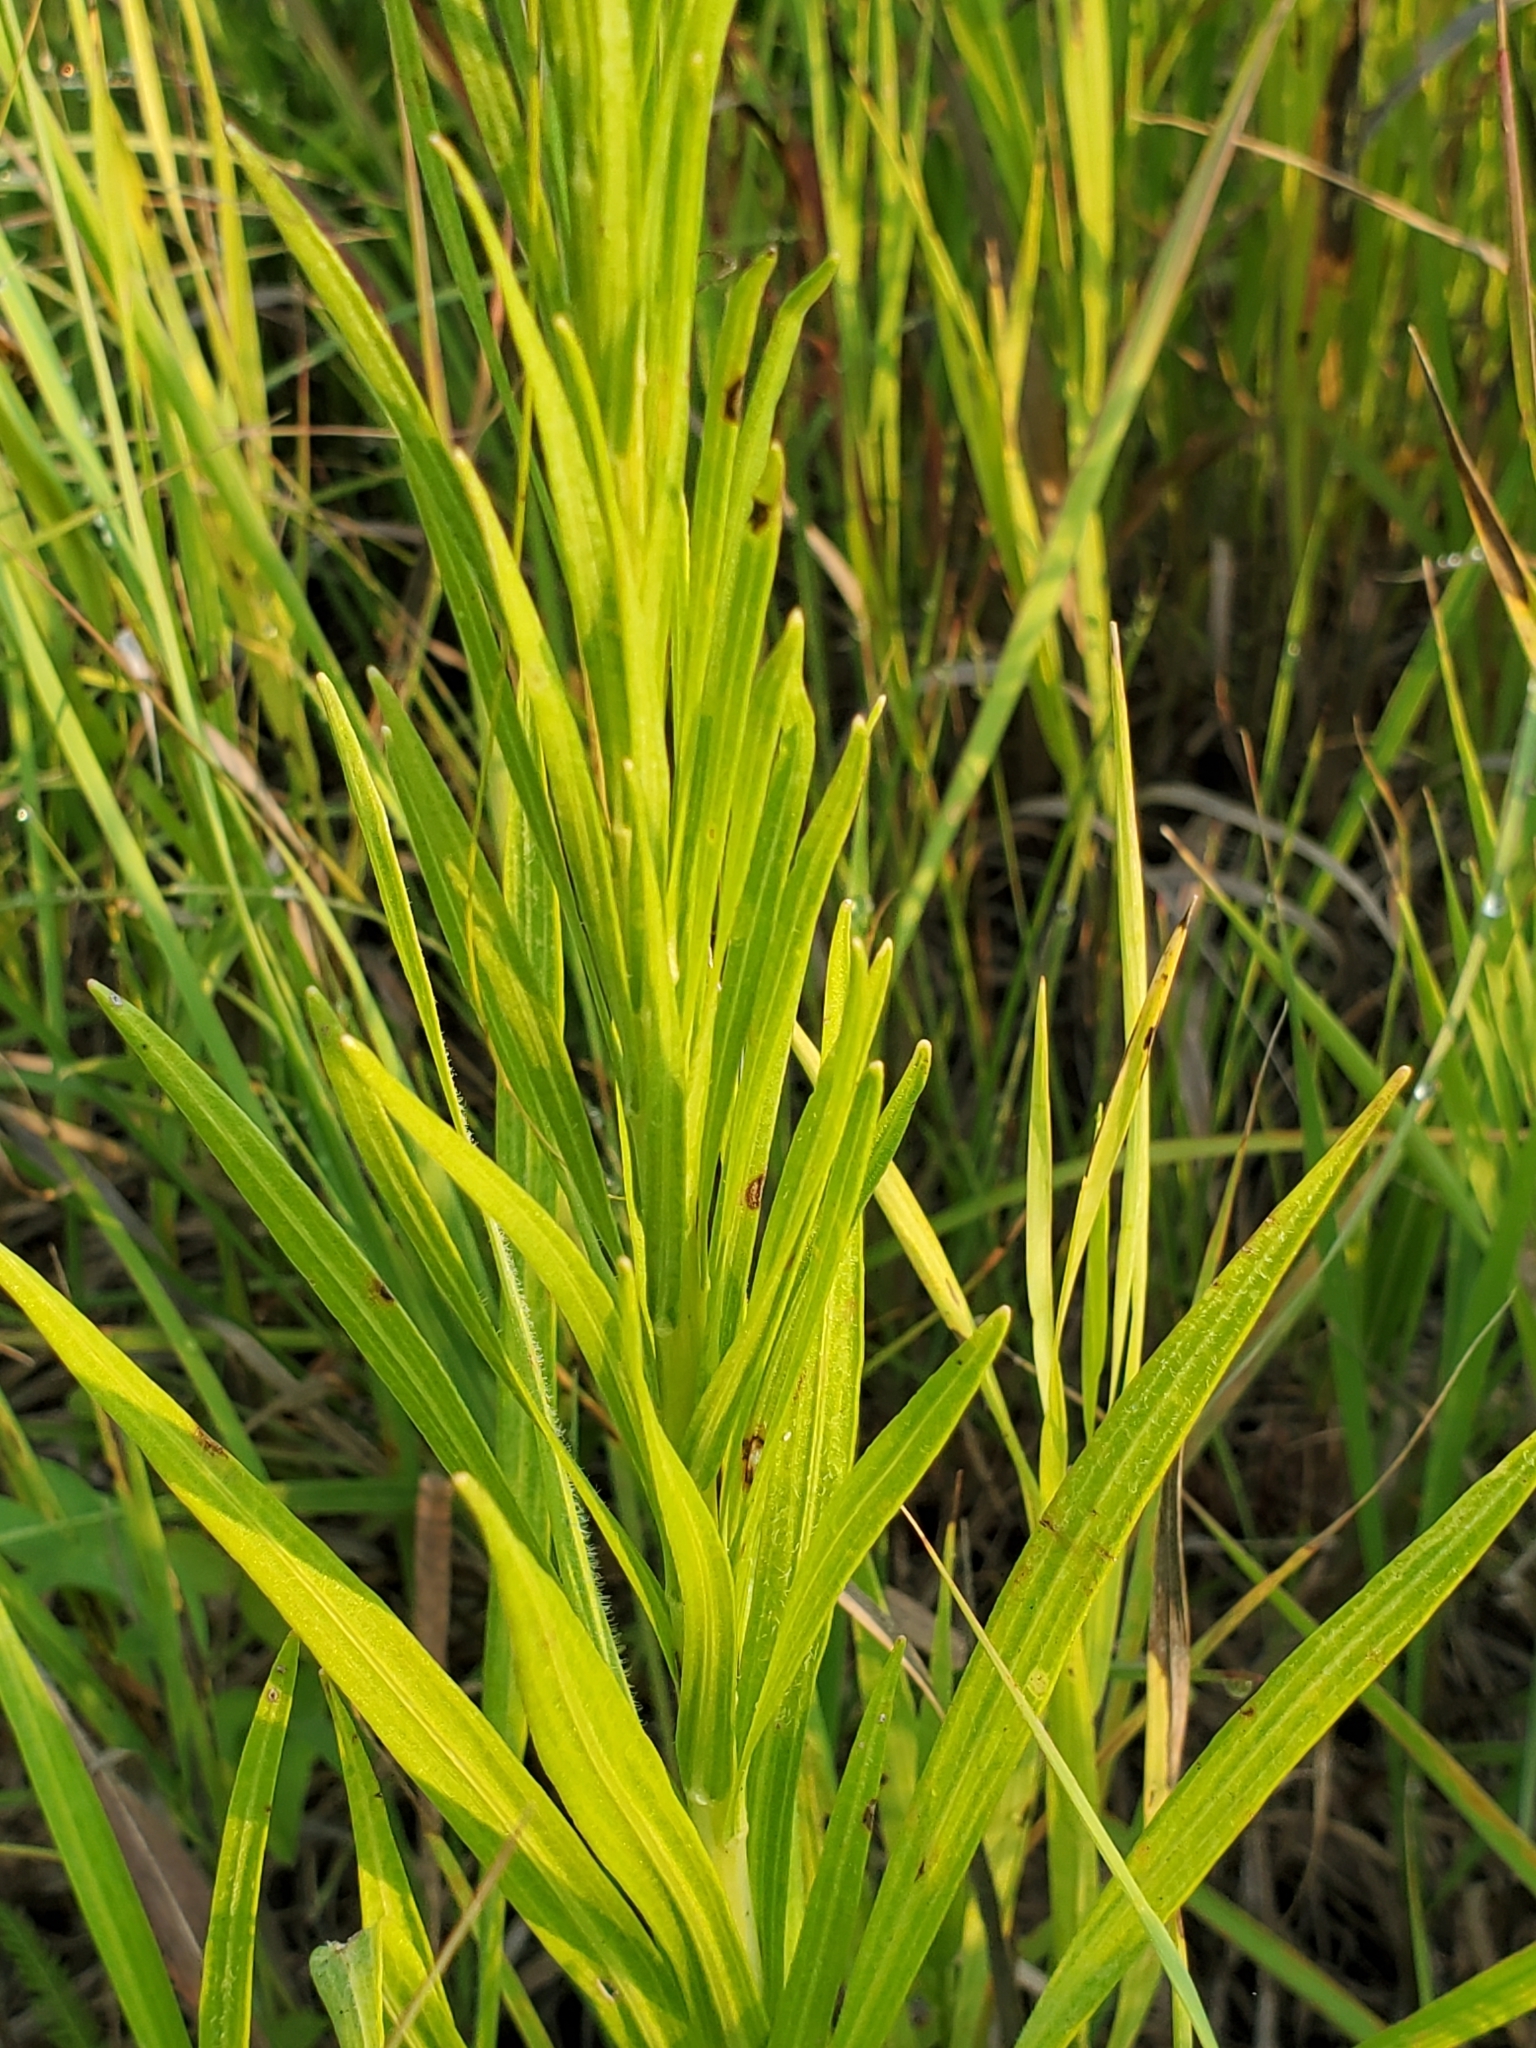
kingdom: Plantae
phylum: Tracheophyta
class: Magnoliopsida
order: Asterales
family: Asteraceae
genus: Liatris
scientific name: Liatris pycnostachya
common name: Cattail gayfeather
